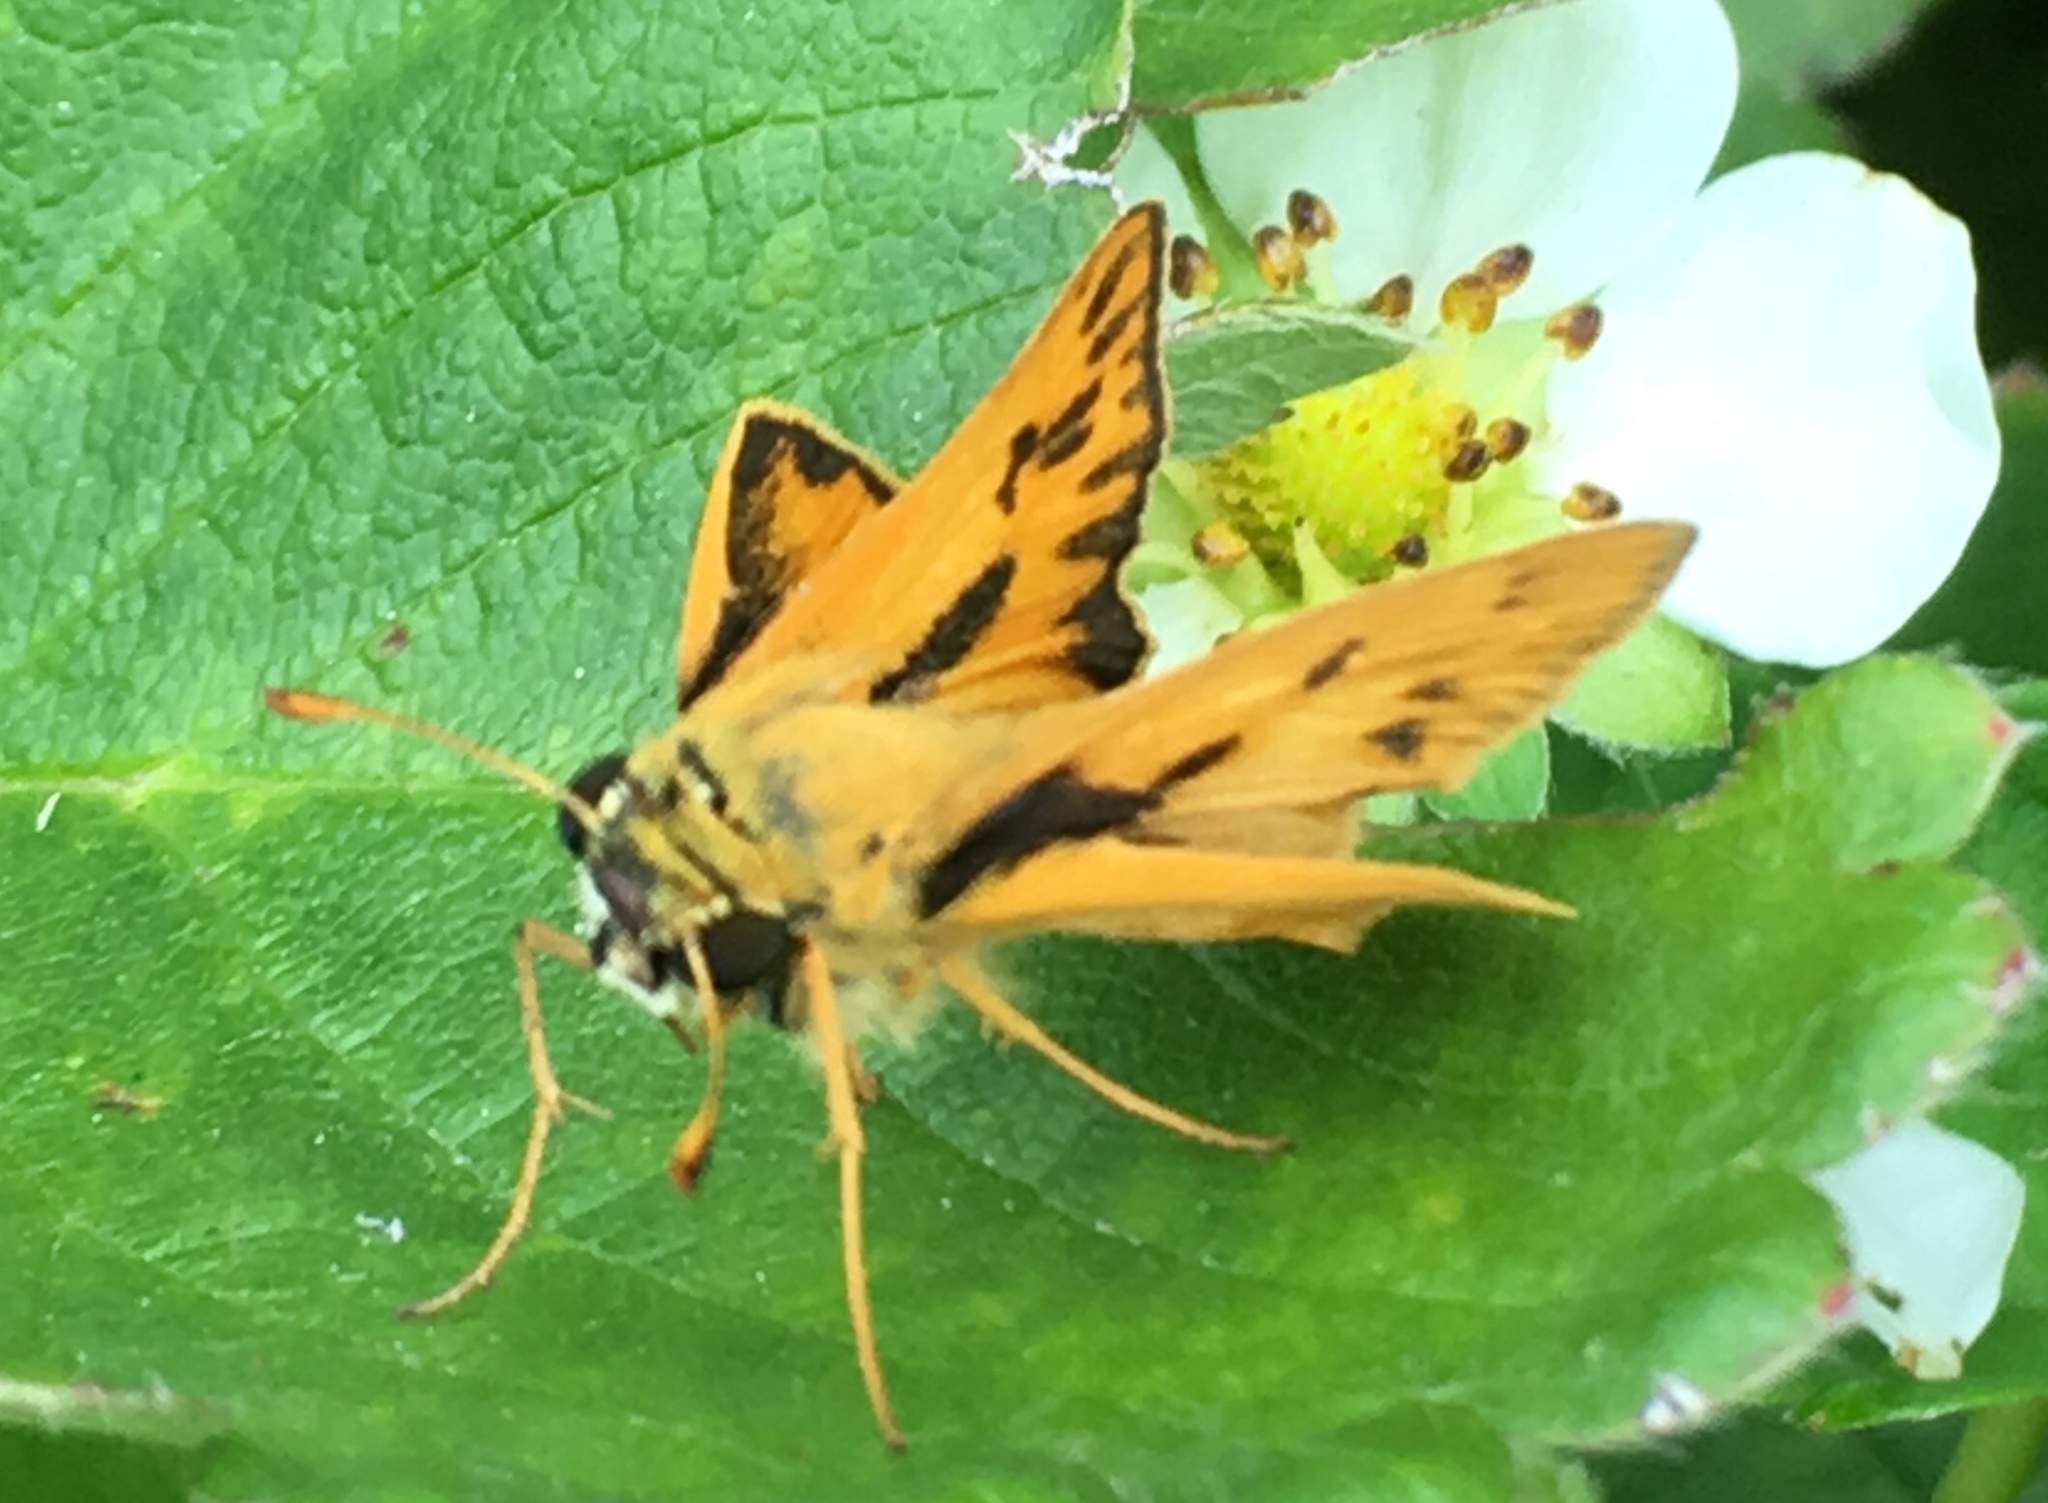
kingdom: Animalia
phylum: Arthropoda
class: Insecta
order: Lepidoptera
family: Hesperiidae
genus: Hylephila
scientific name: Hylephila phyleus
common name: Fiery skipper
